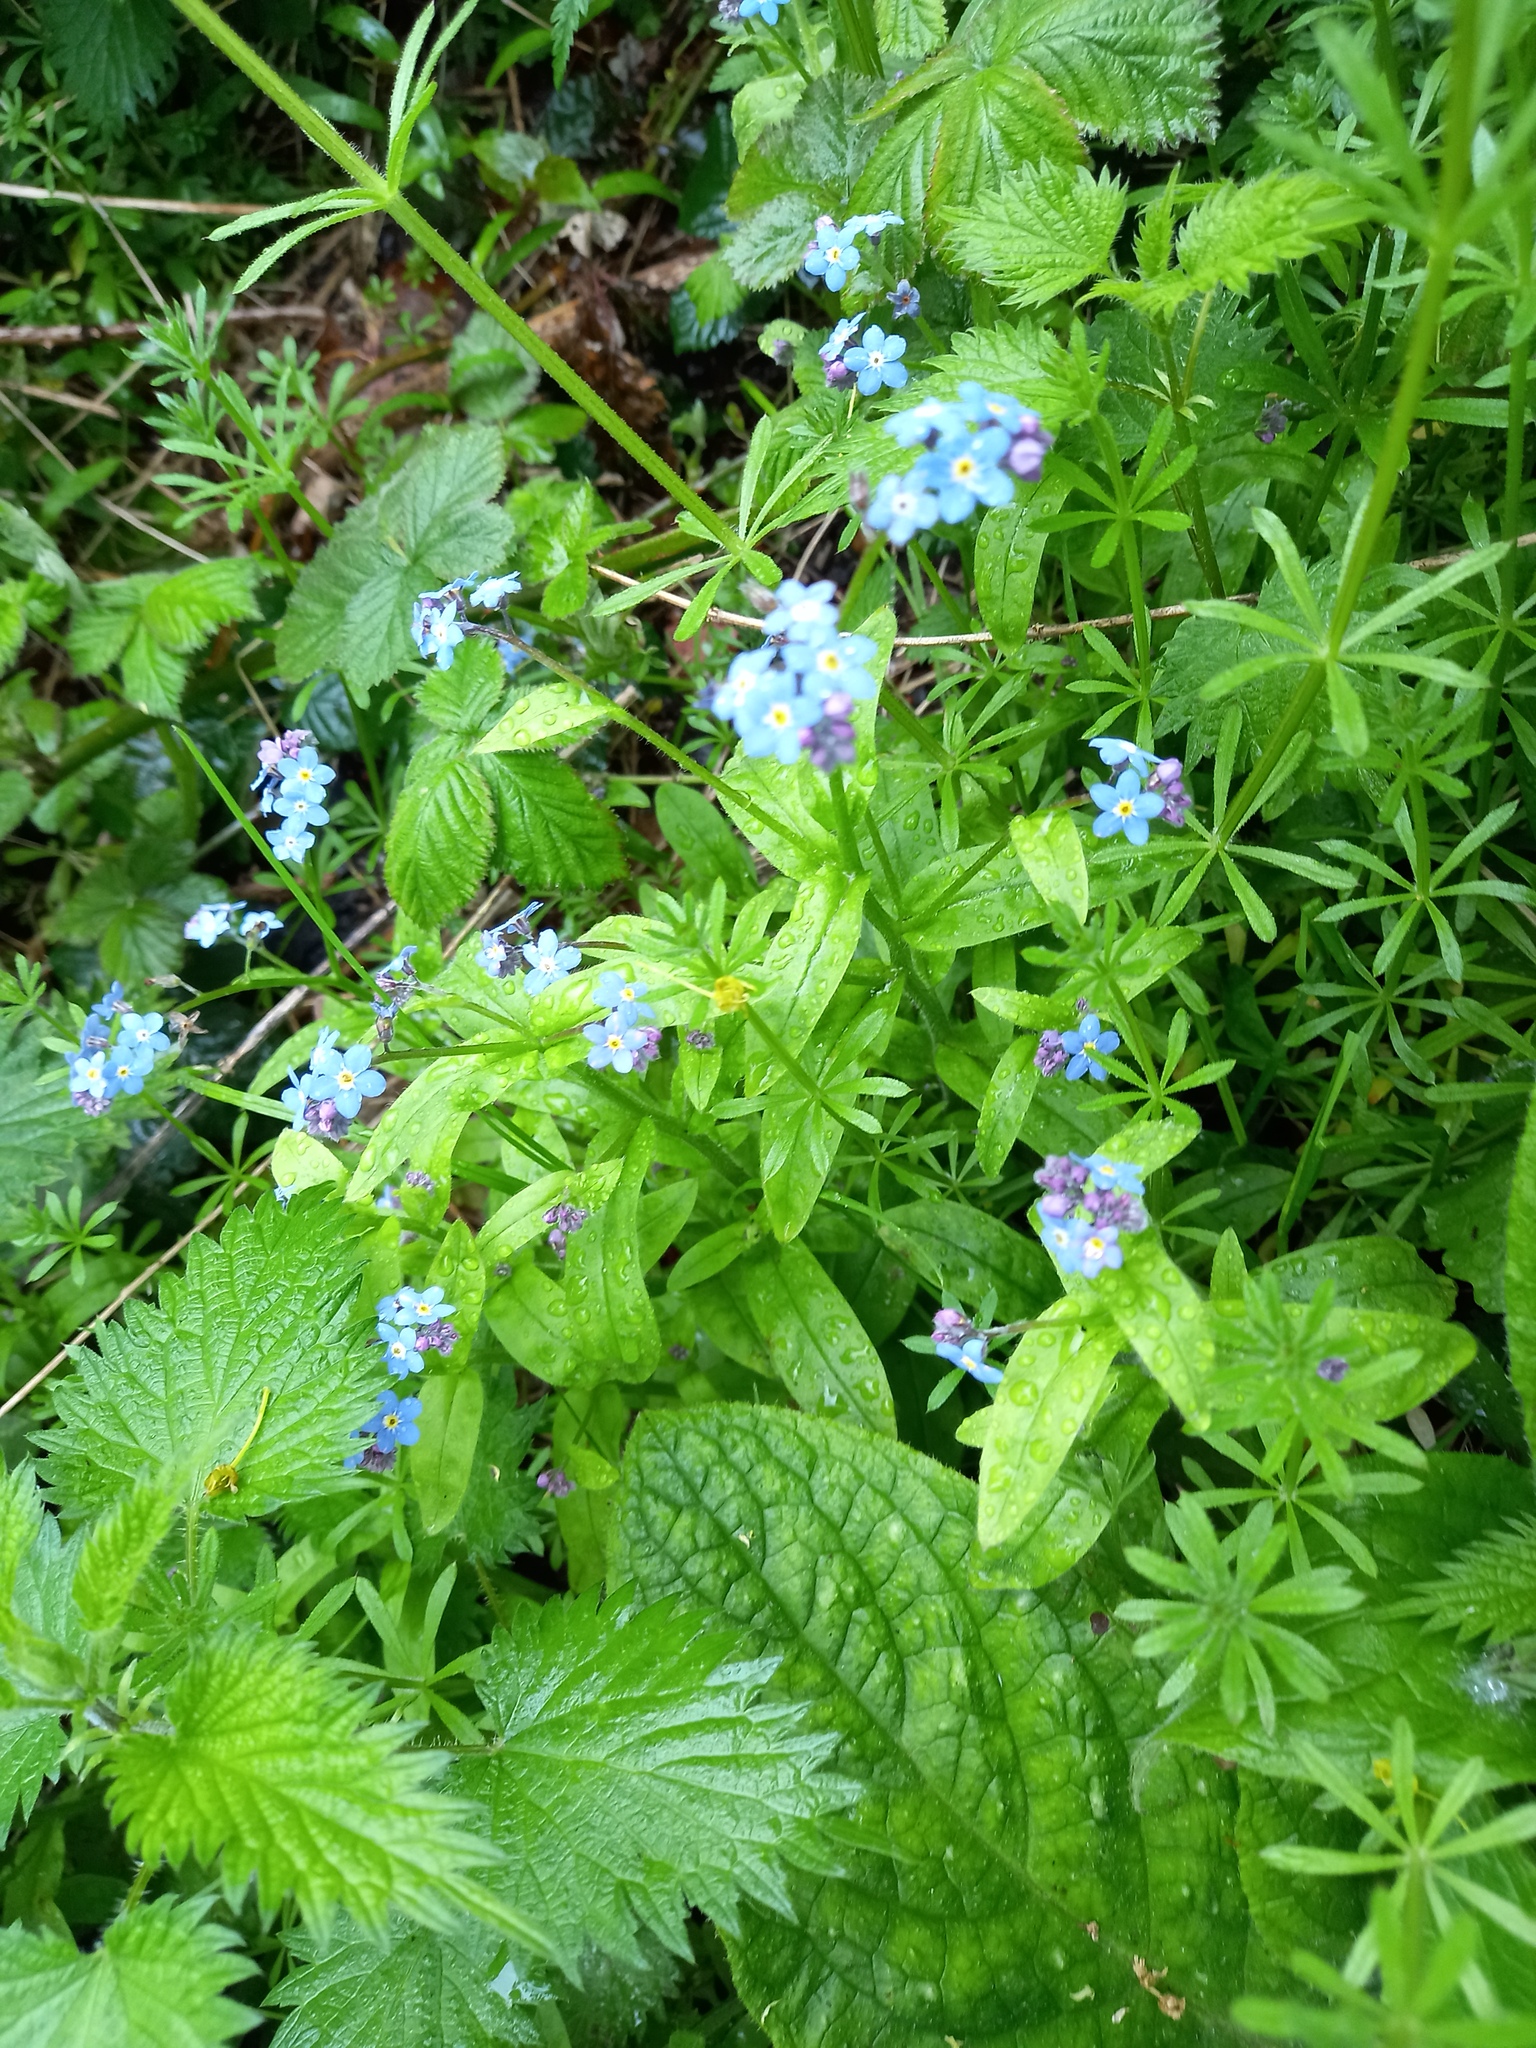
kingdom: Plantae
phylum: Tracheophyta
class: Magnoliopsida
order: Boraginales
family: Boraginaceae
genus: Myosotis
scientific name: Myosotis sylvatica
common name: Wood forget-me-not
